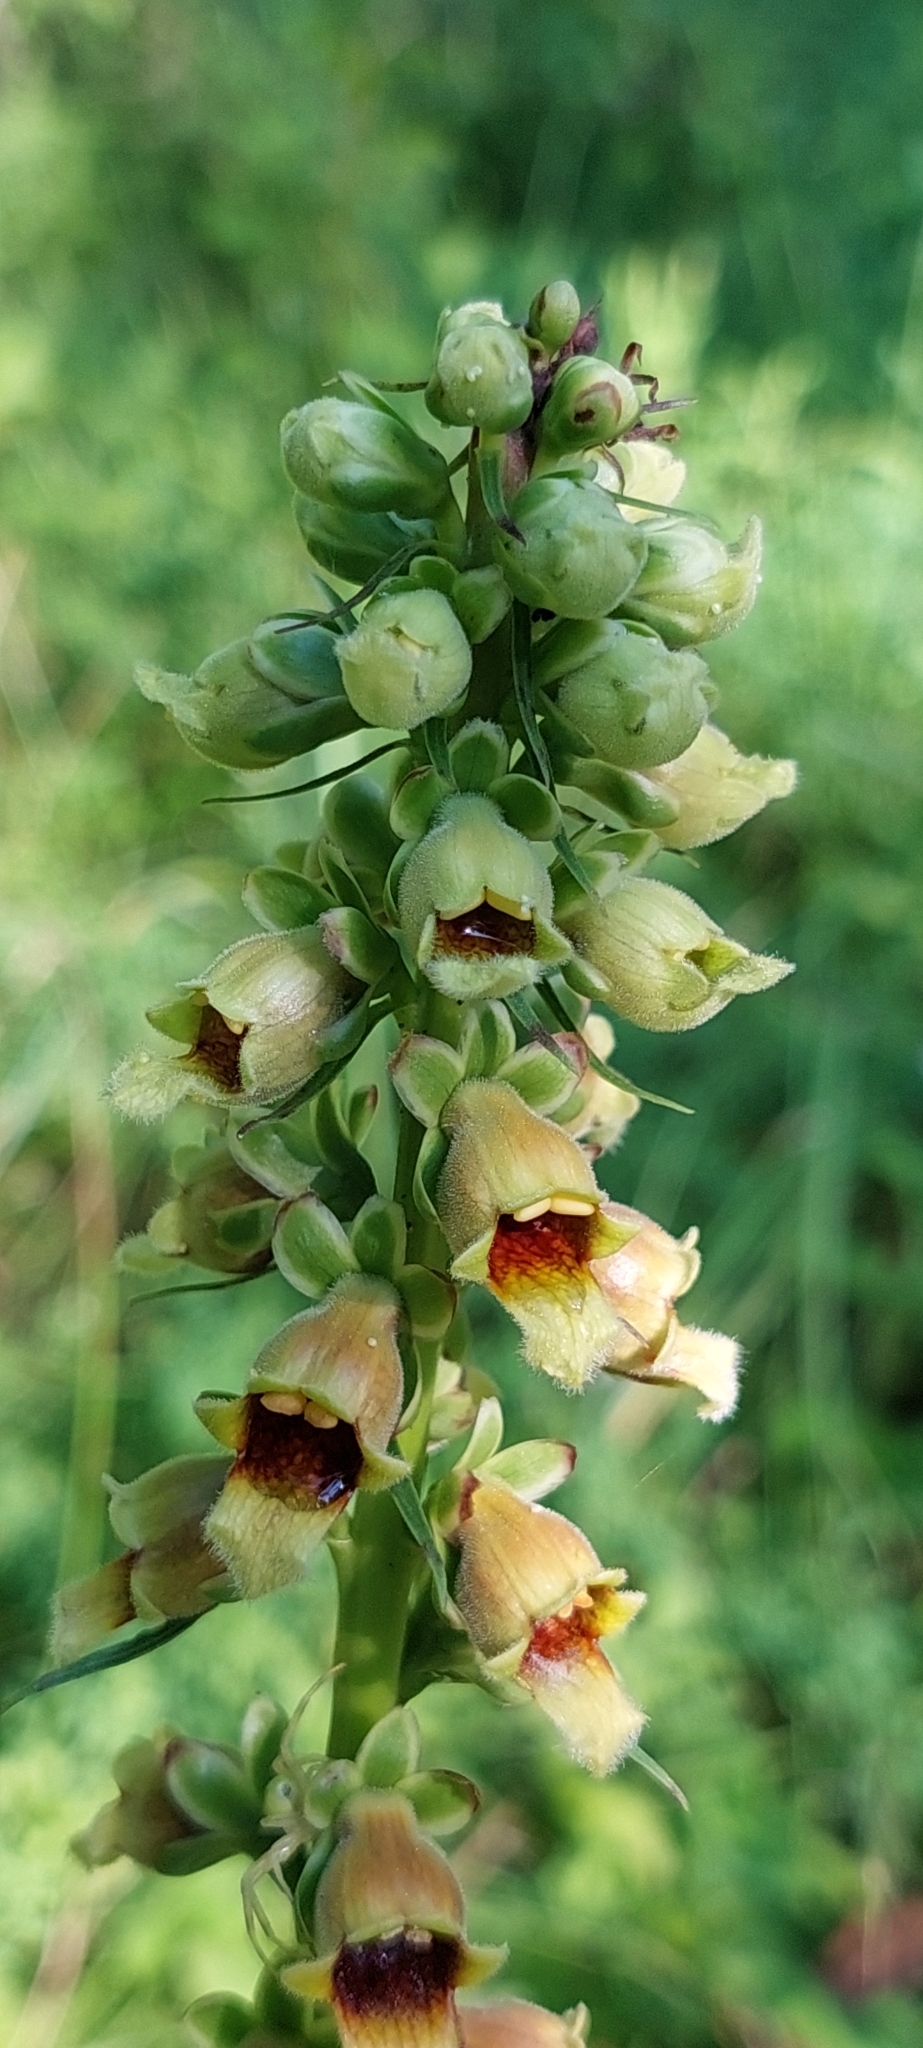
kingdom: Plantae
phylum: Tracheophyta
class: Magnoliopsida
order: Lamiales
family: Plantaginaceae
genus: Digitalis
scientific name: Digitalis ferruginea
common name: Rusty foxglove
